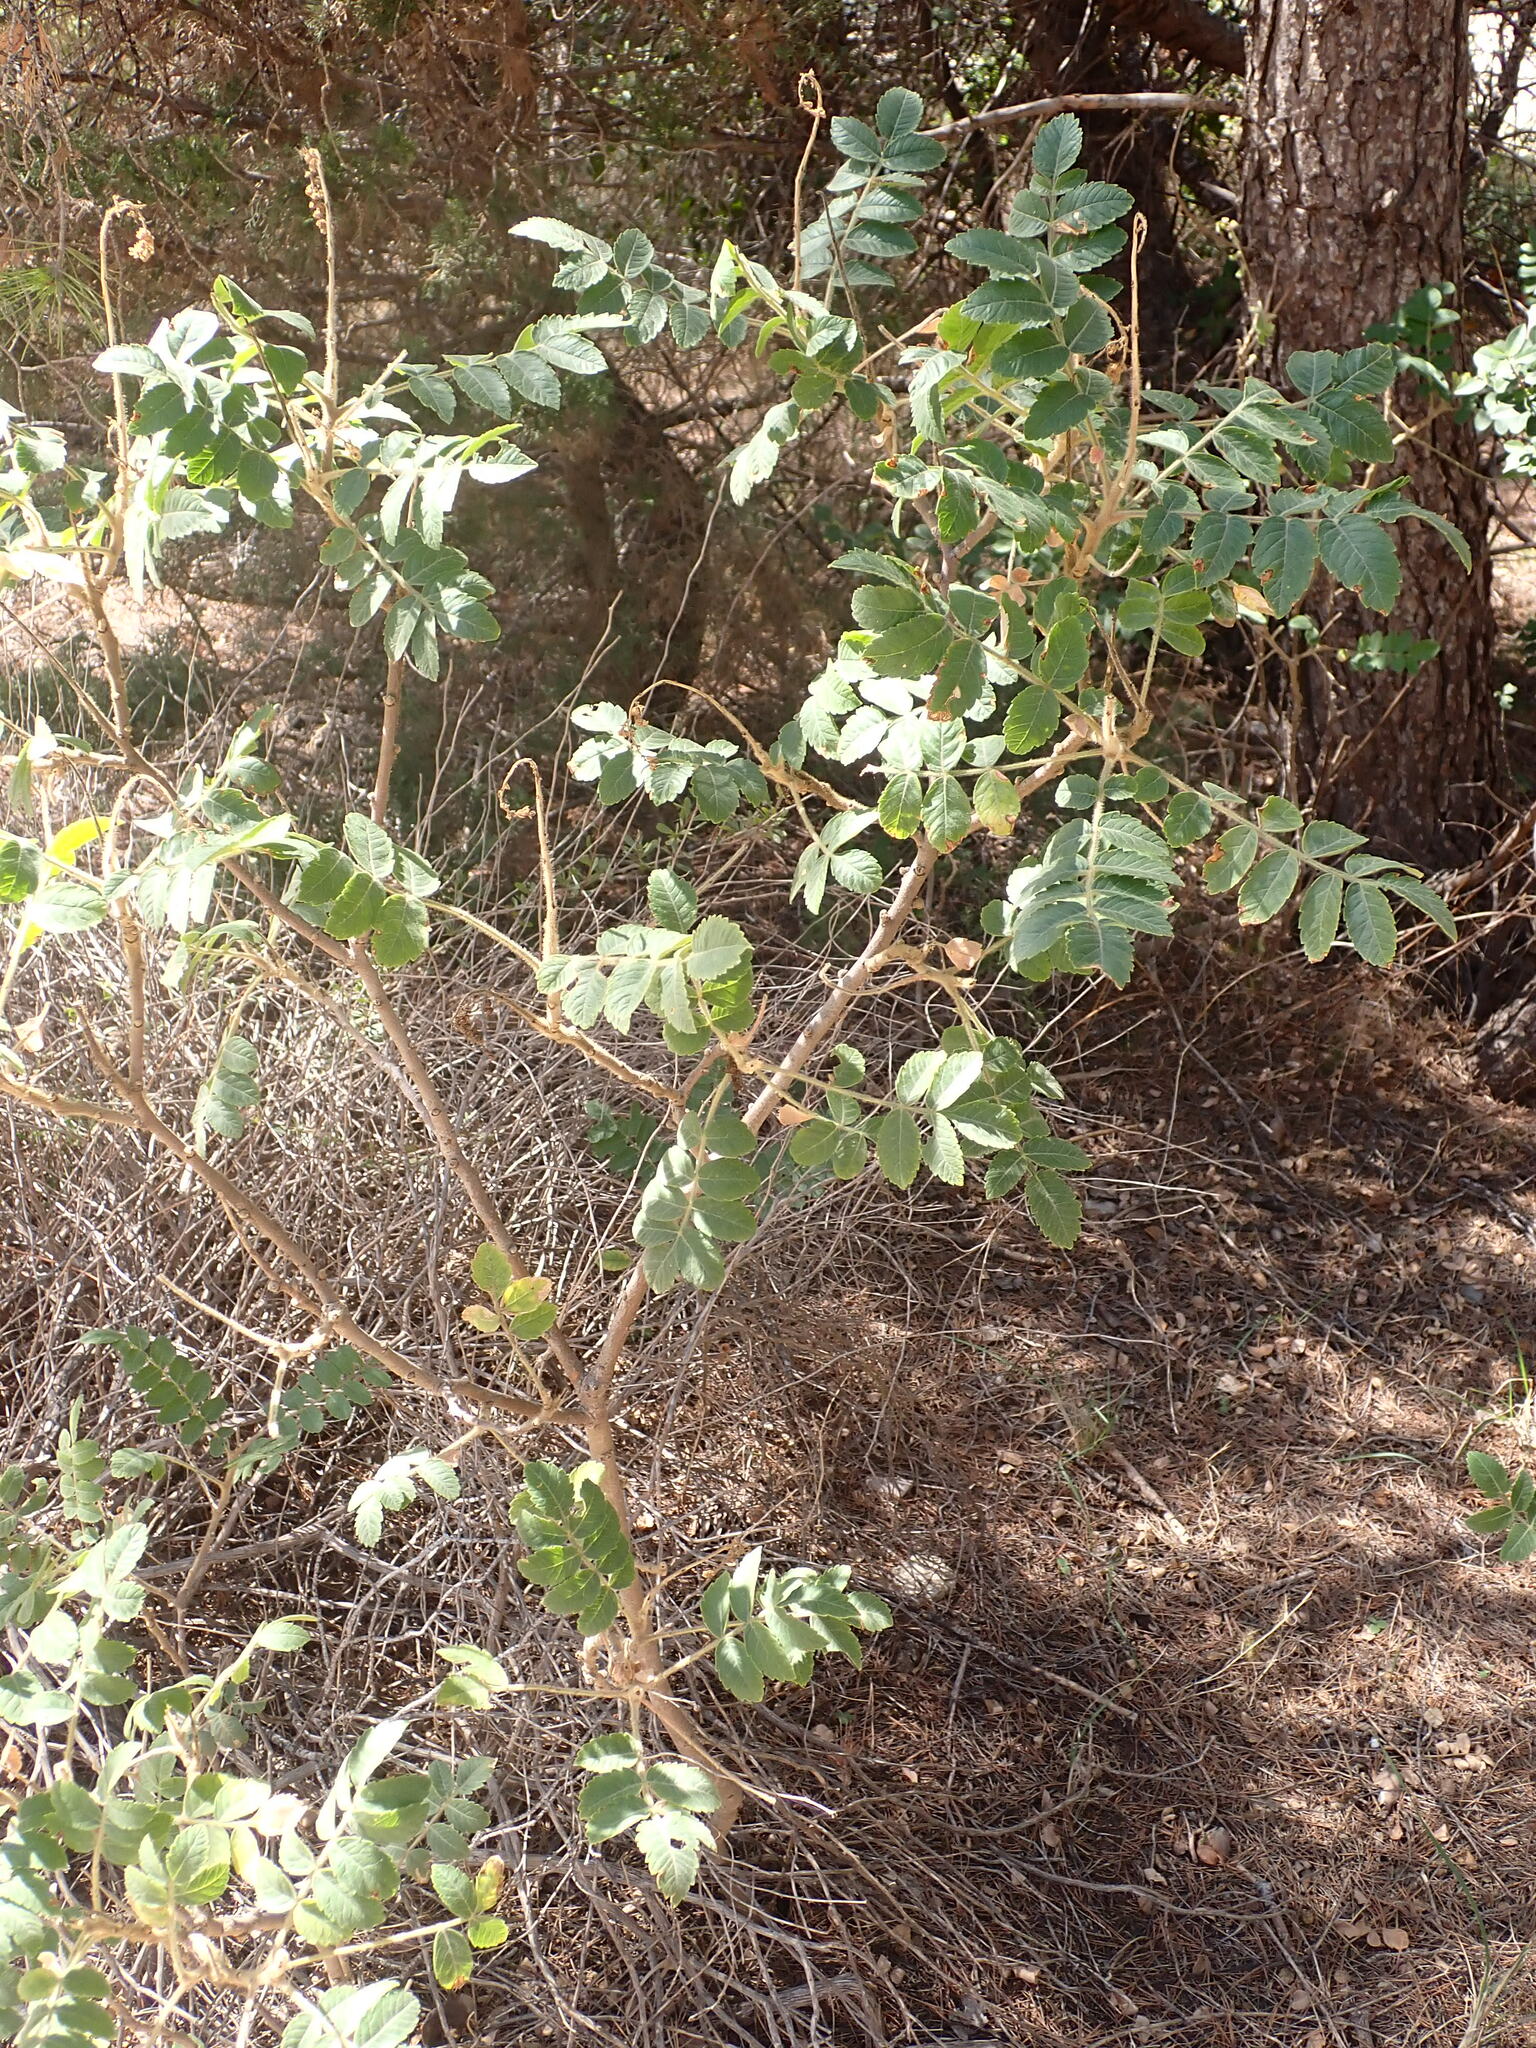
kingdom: Plantae
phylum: Tracheophyta
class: Magnoliopsida
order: Sapindales
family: Anacardiaceae
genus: Rhus
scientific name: Rhus coriaria
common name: Tanner's sumach
